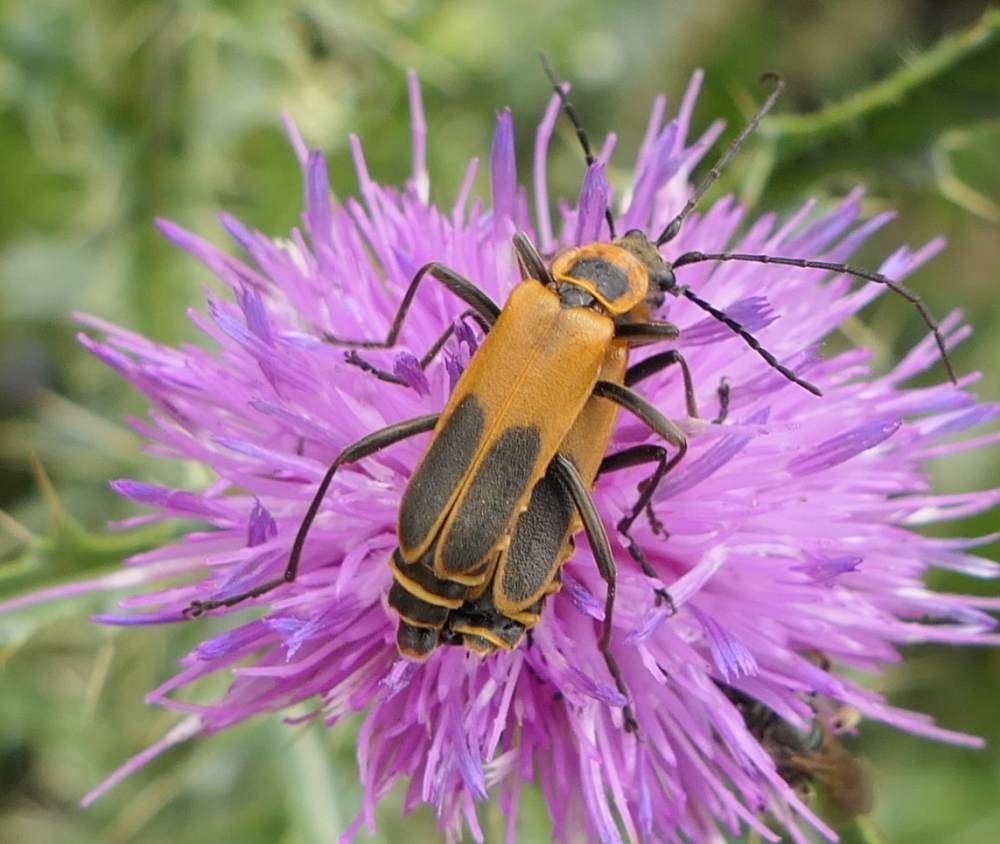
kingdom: Animalia
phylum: Arthropoda
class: Insecta
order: Coleoptera
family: Cantharidae
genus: Chauliognathus
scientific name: Chauliognathus pensylvanicus
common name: Goldenrod soldier beetle
